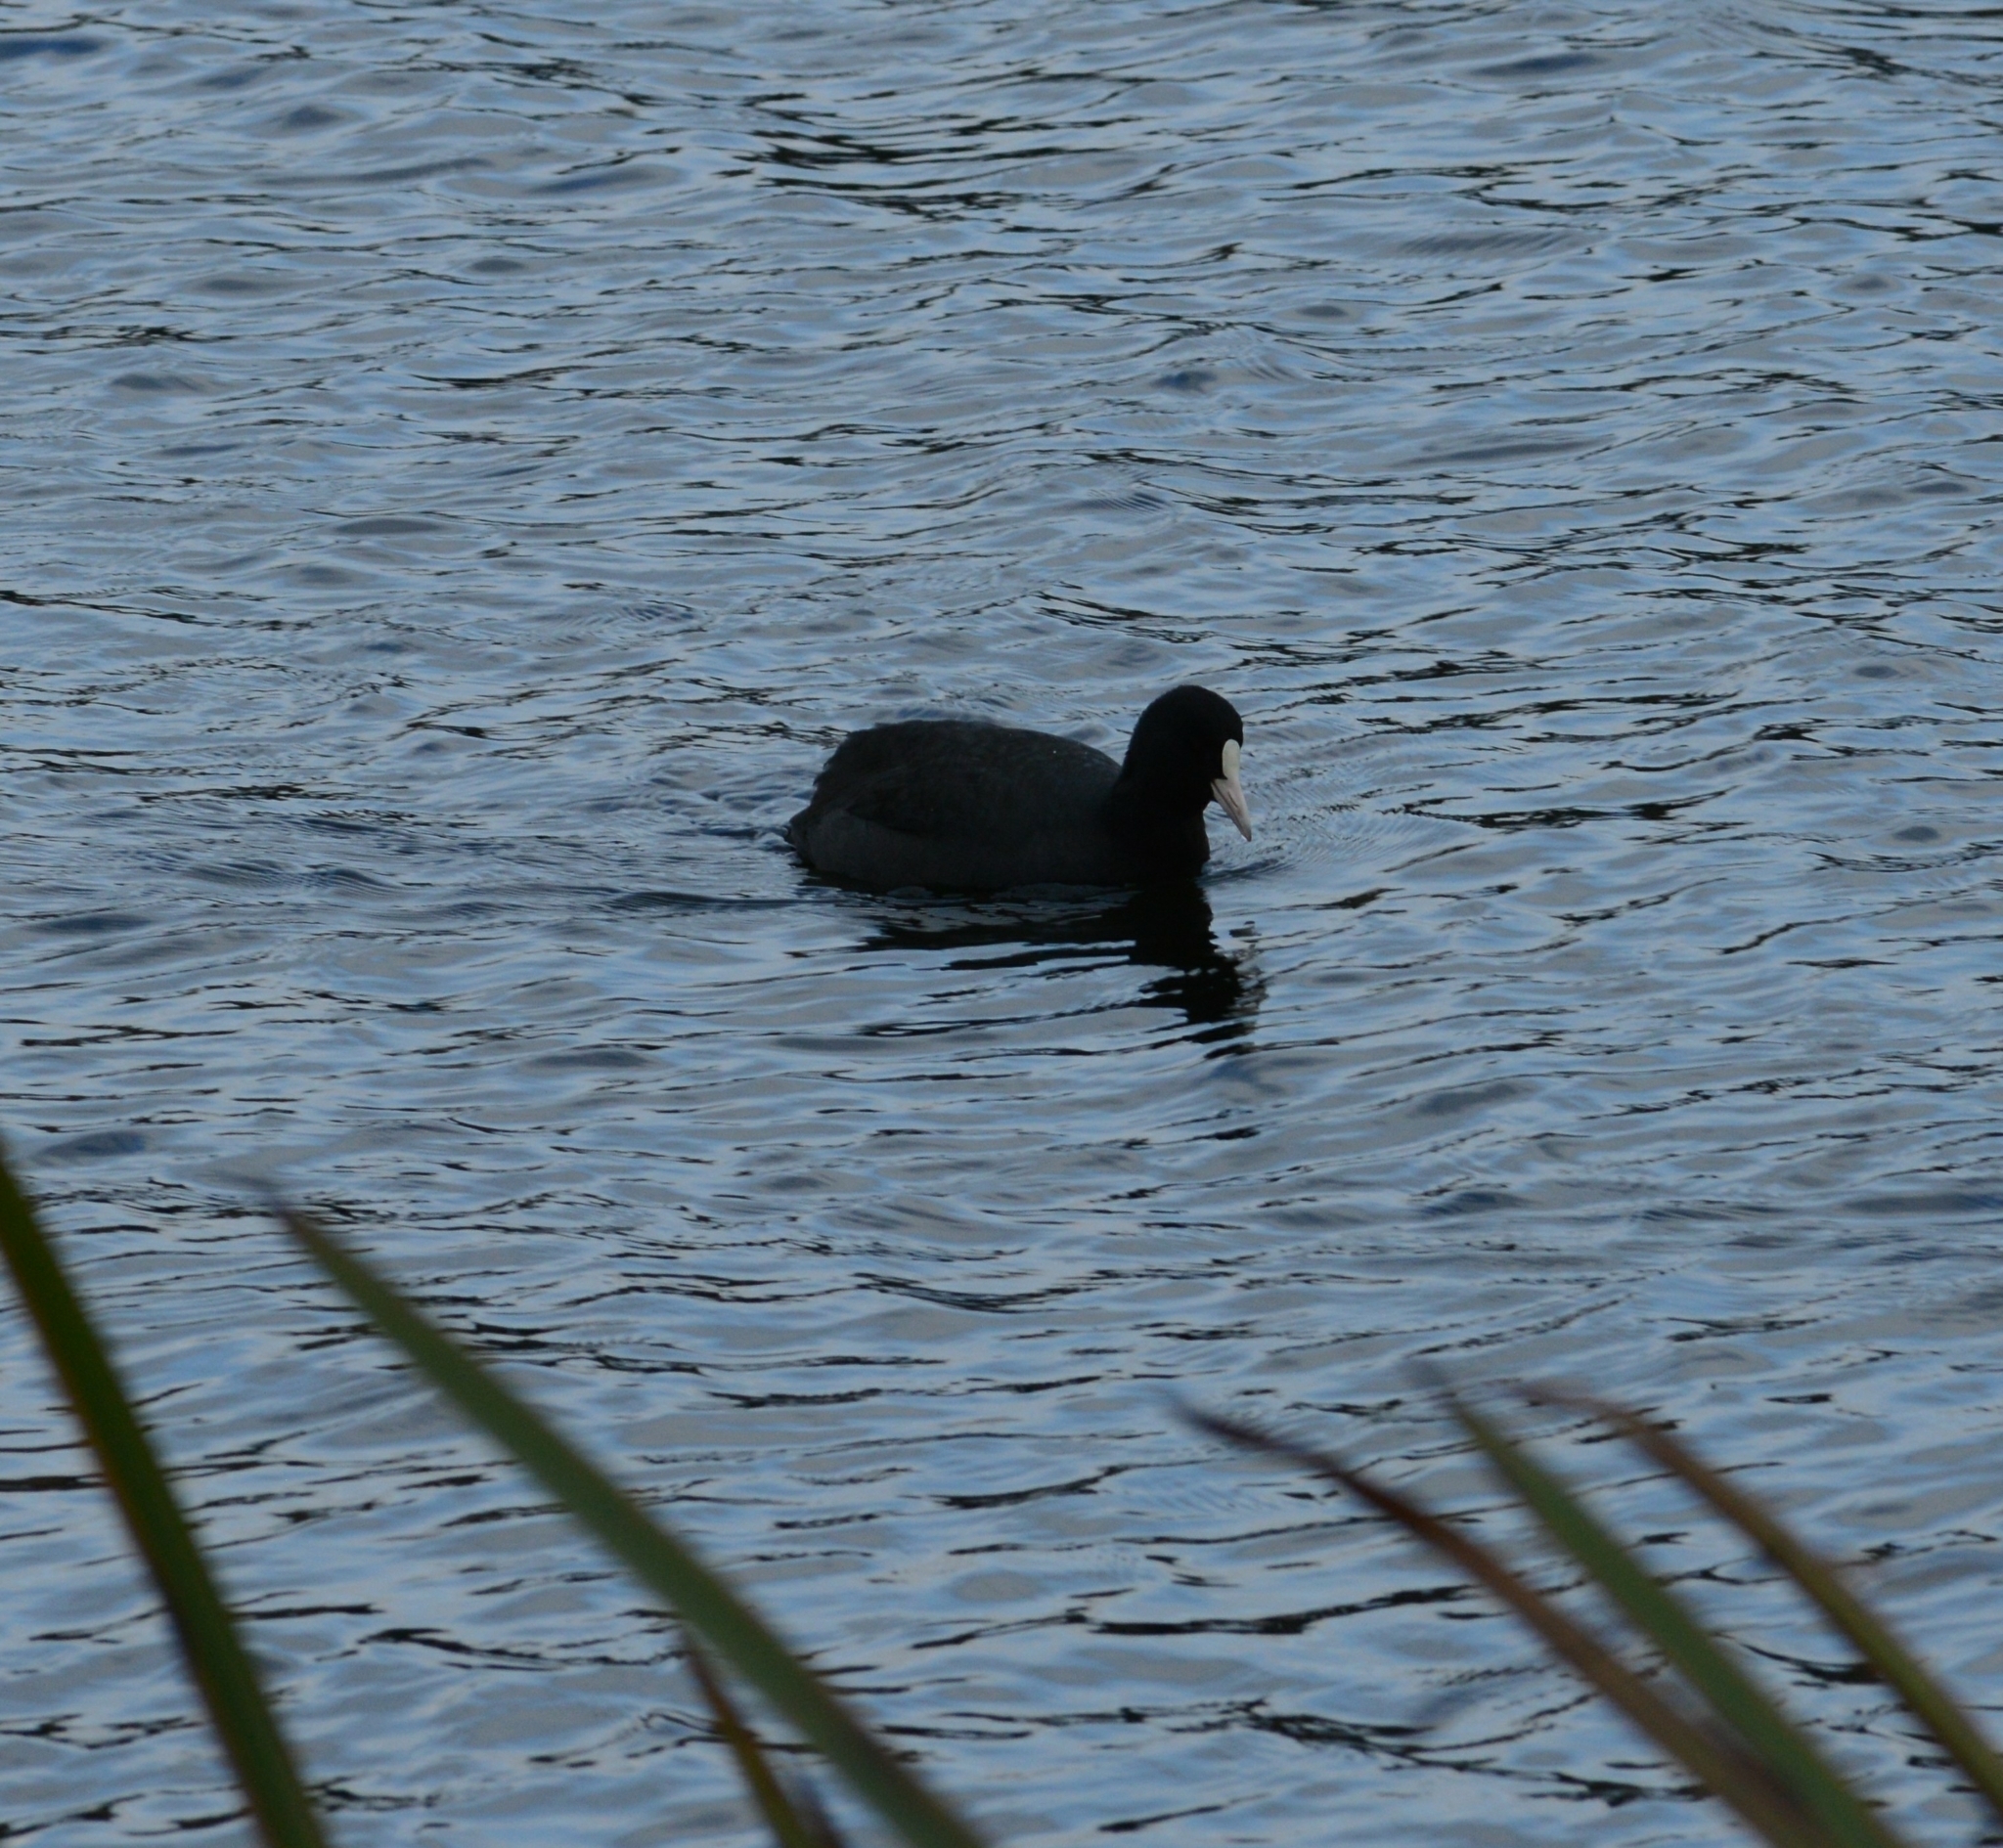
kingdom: Animalia
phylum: Chordata
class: Aves
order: Gruiformes
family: Rallidae
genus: Fulica
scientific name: Fulica atra
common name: Eurasian coot
